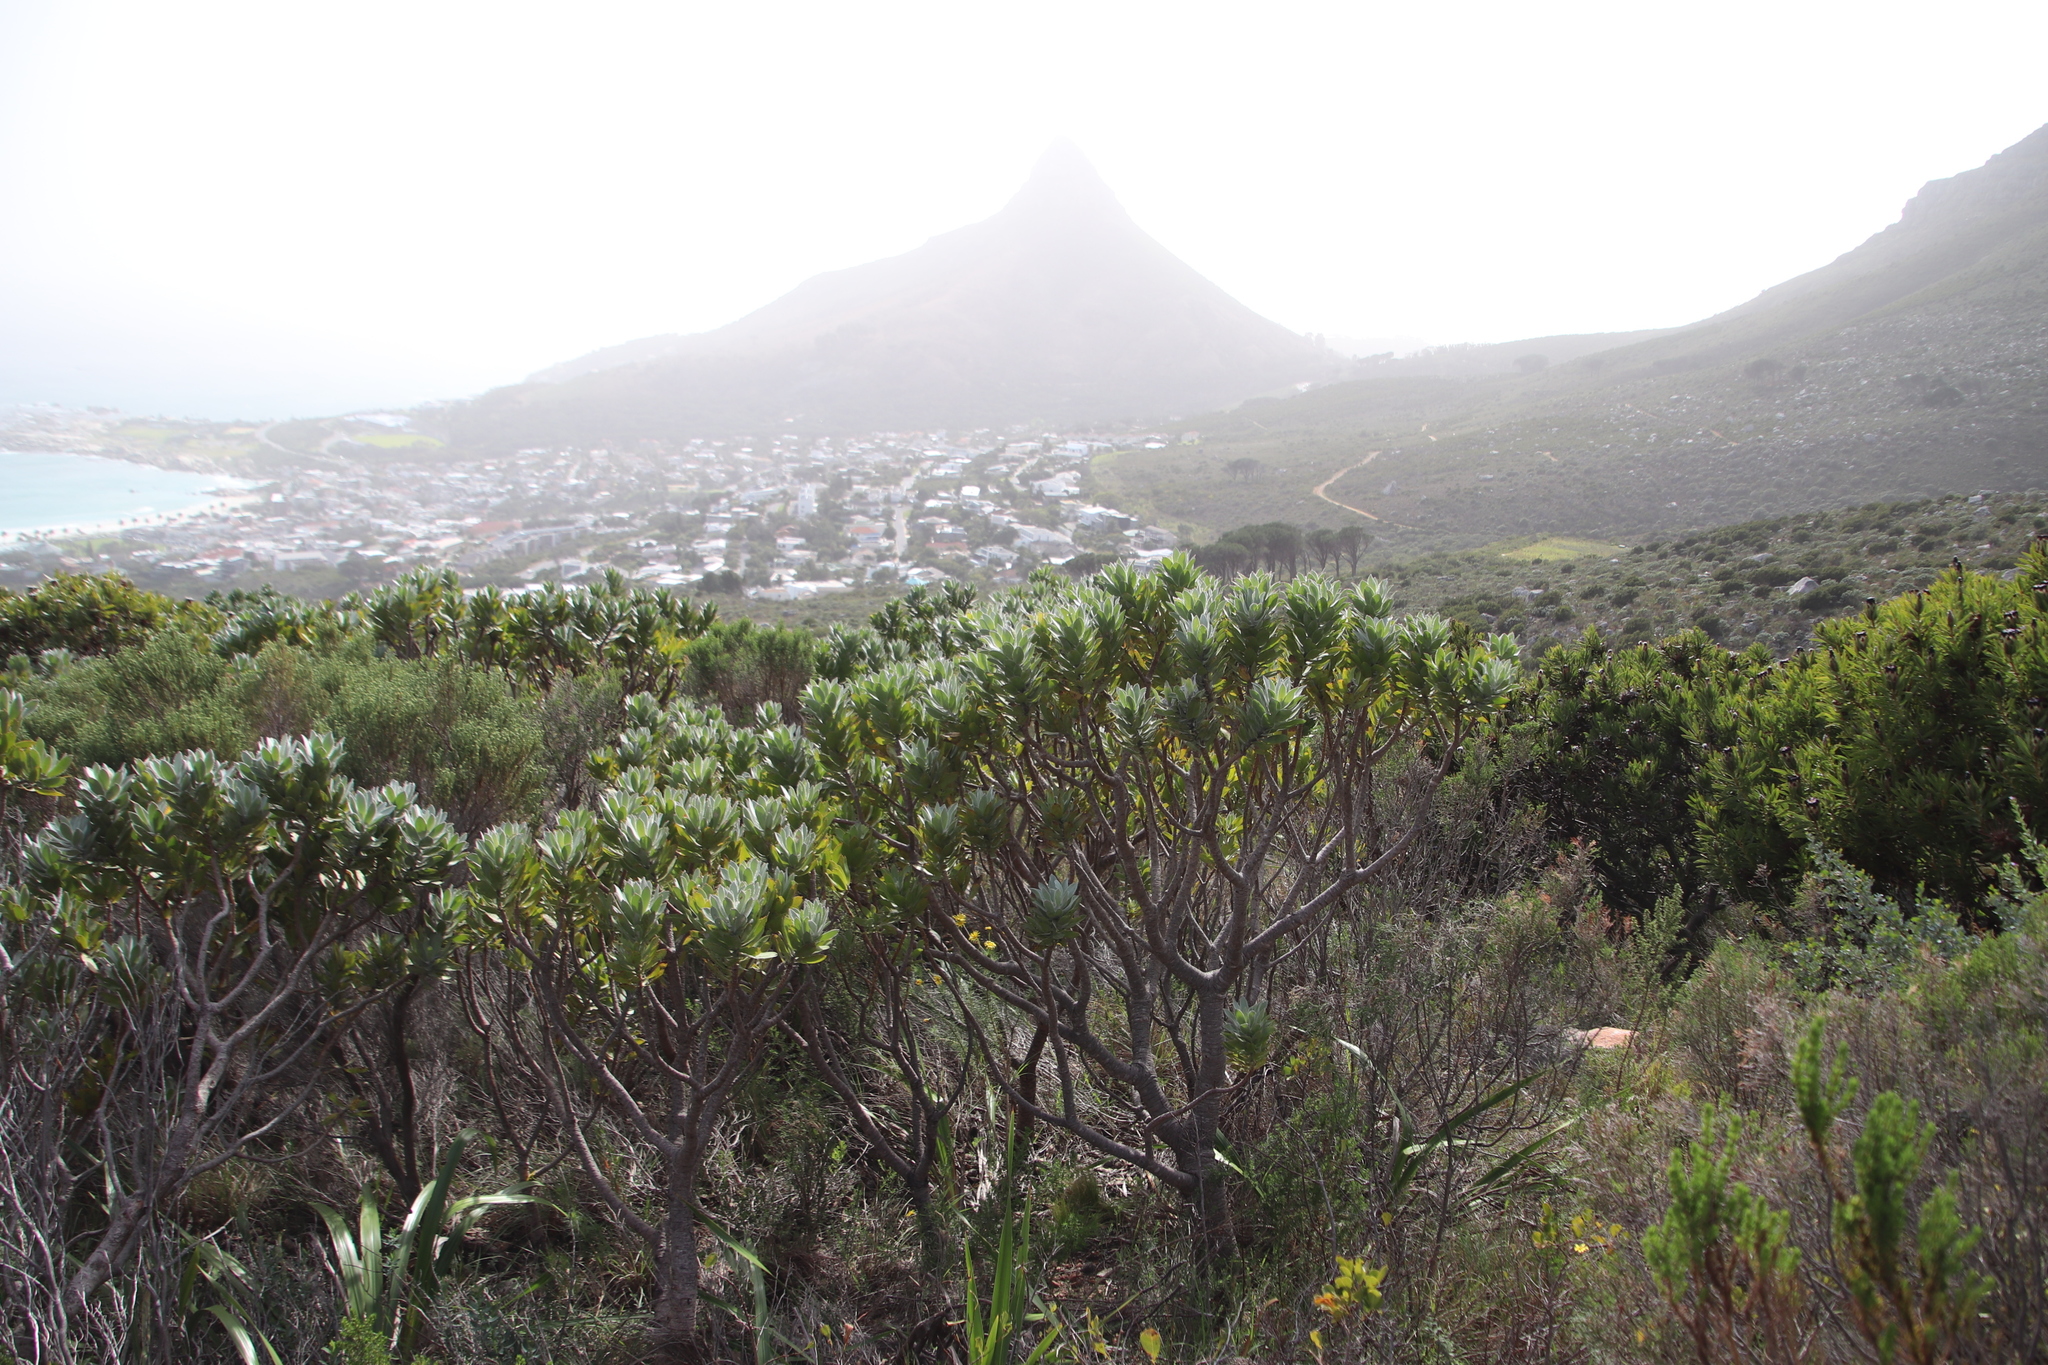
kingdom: Plantae
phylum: Tracheophyta
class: Magnoliopsida
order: Proteales
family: Proteaceae
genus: Leucospermum
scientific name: Leucospermum conocarpodendron
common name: Tree pincushion
